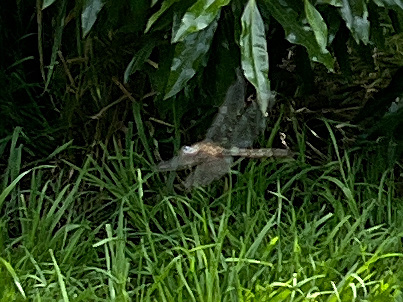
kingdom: Animalia
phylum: Arthropoda
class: Insecta
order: Odonata
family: Corduliidae
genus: Procordulia
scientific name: Procordulia grayi
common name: Yellow spotted dragonfly
